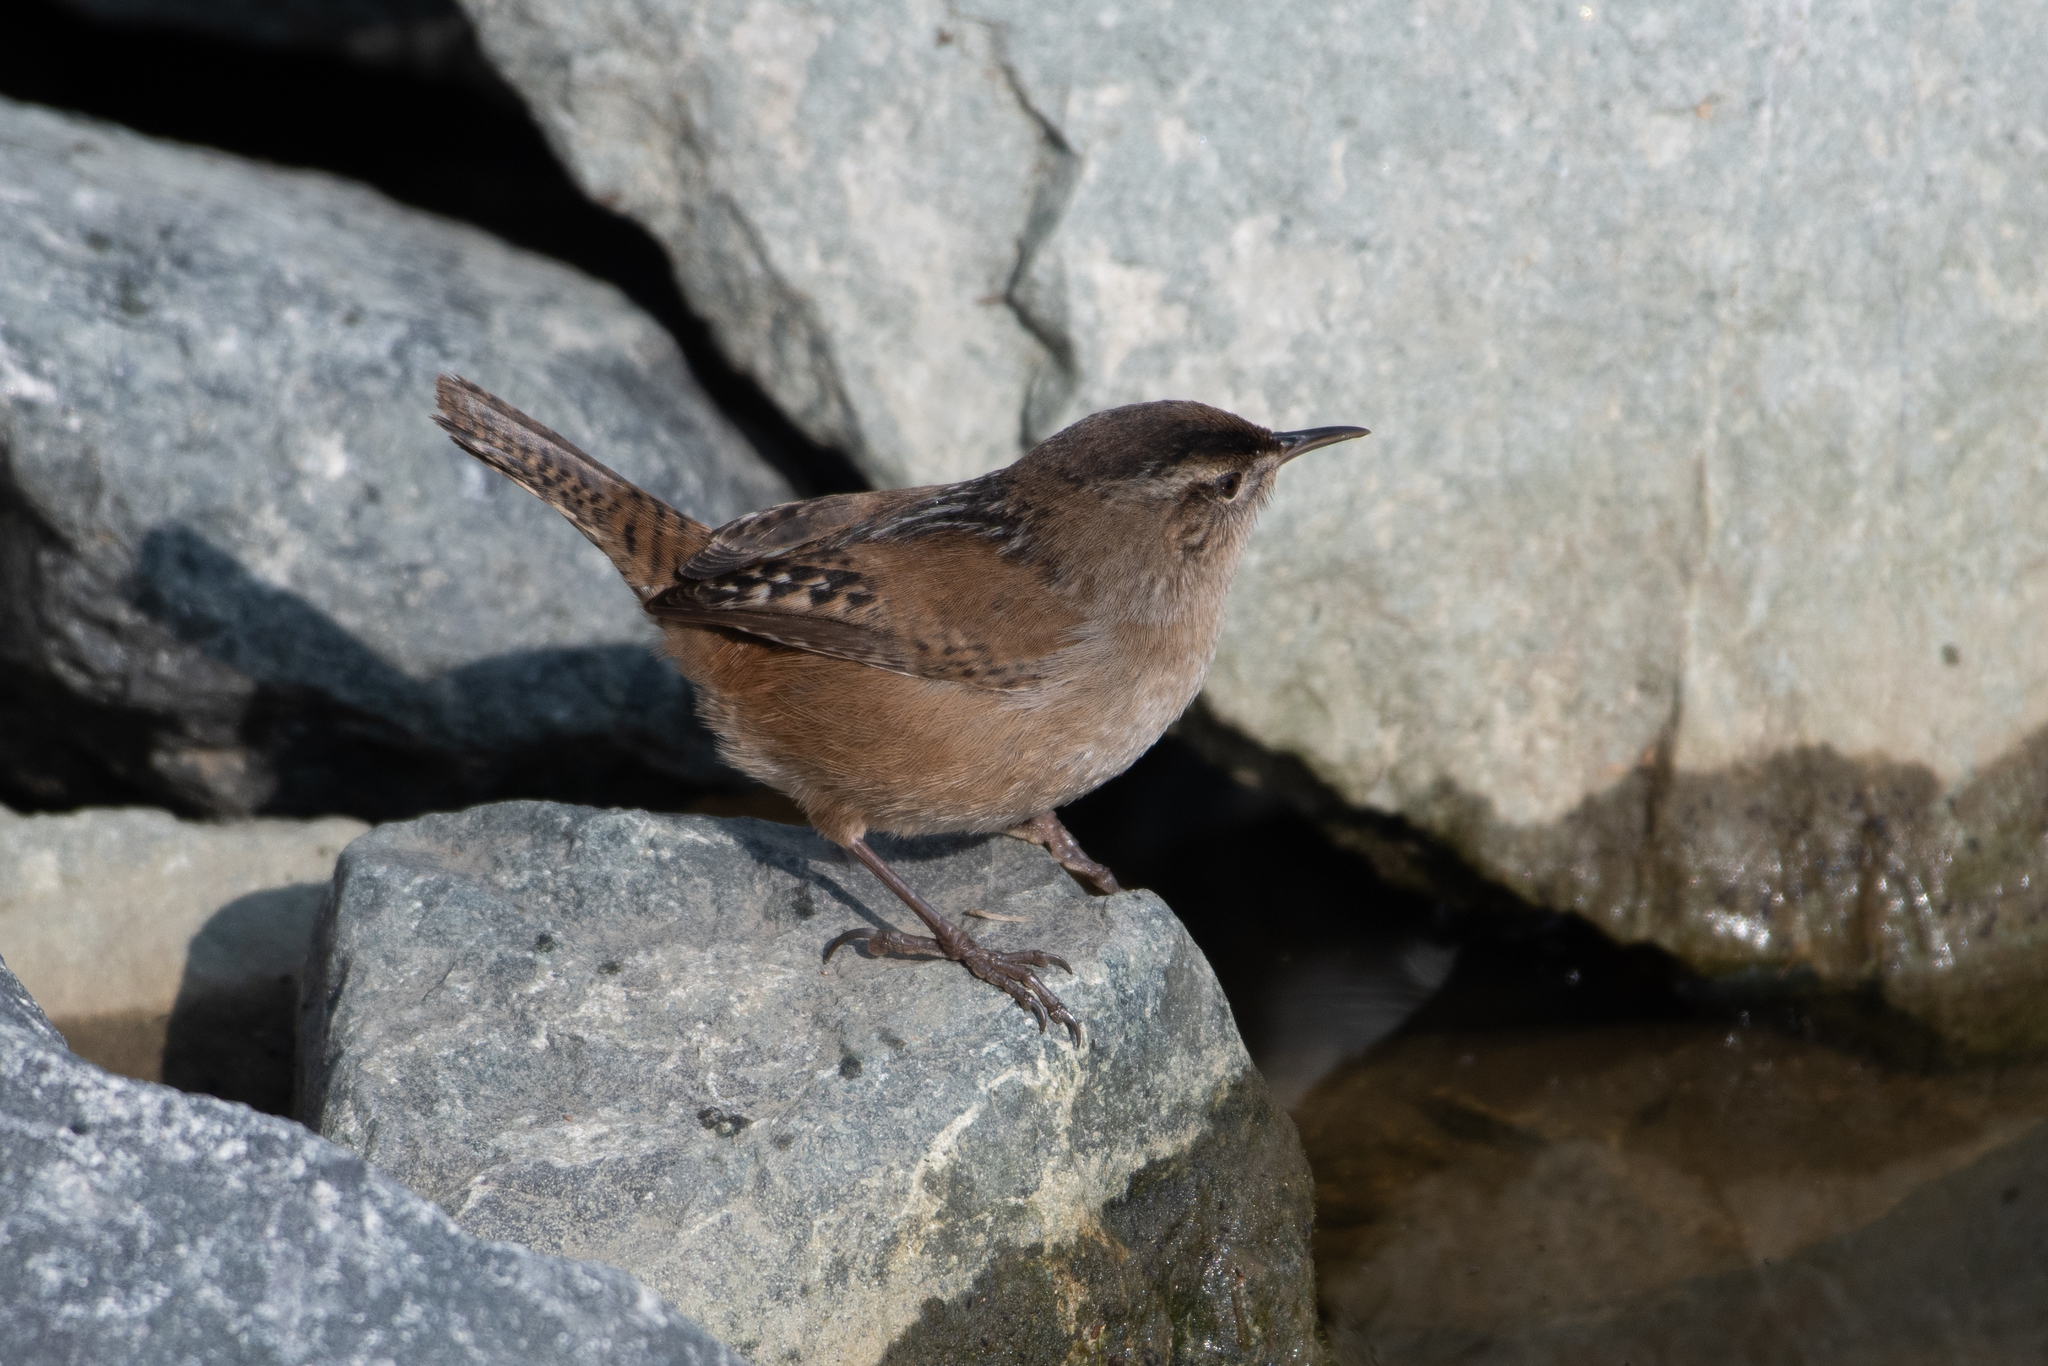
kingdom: Animalia
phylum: Chordata
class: Aves
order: Passeriformes
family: Troglodytidae
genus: Cistothorus
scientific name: Cistothorus palustris
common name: Marsh wren
